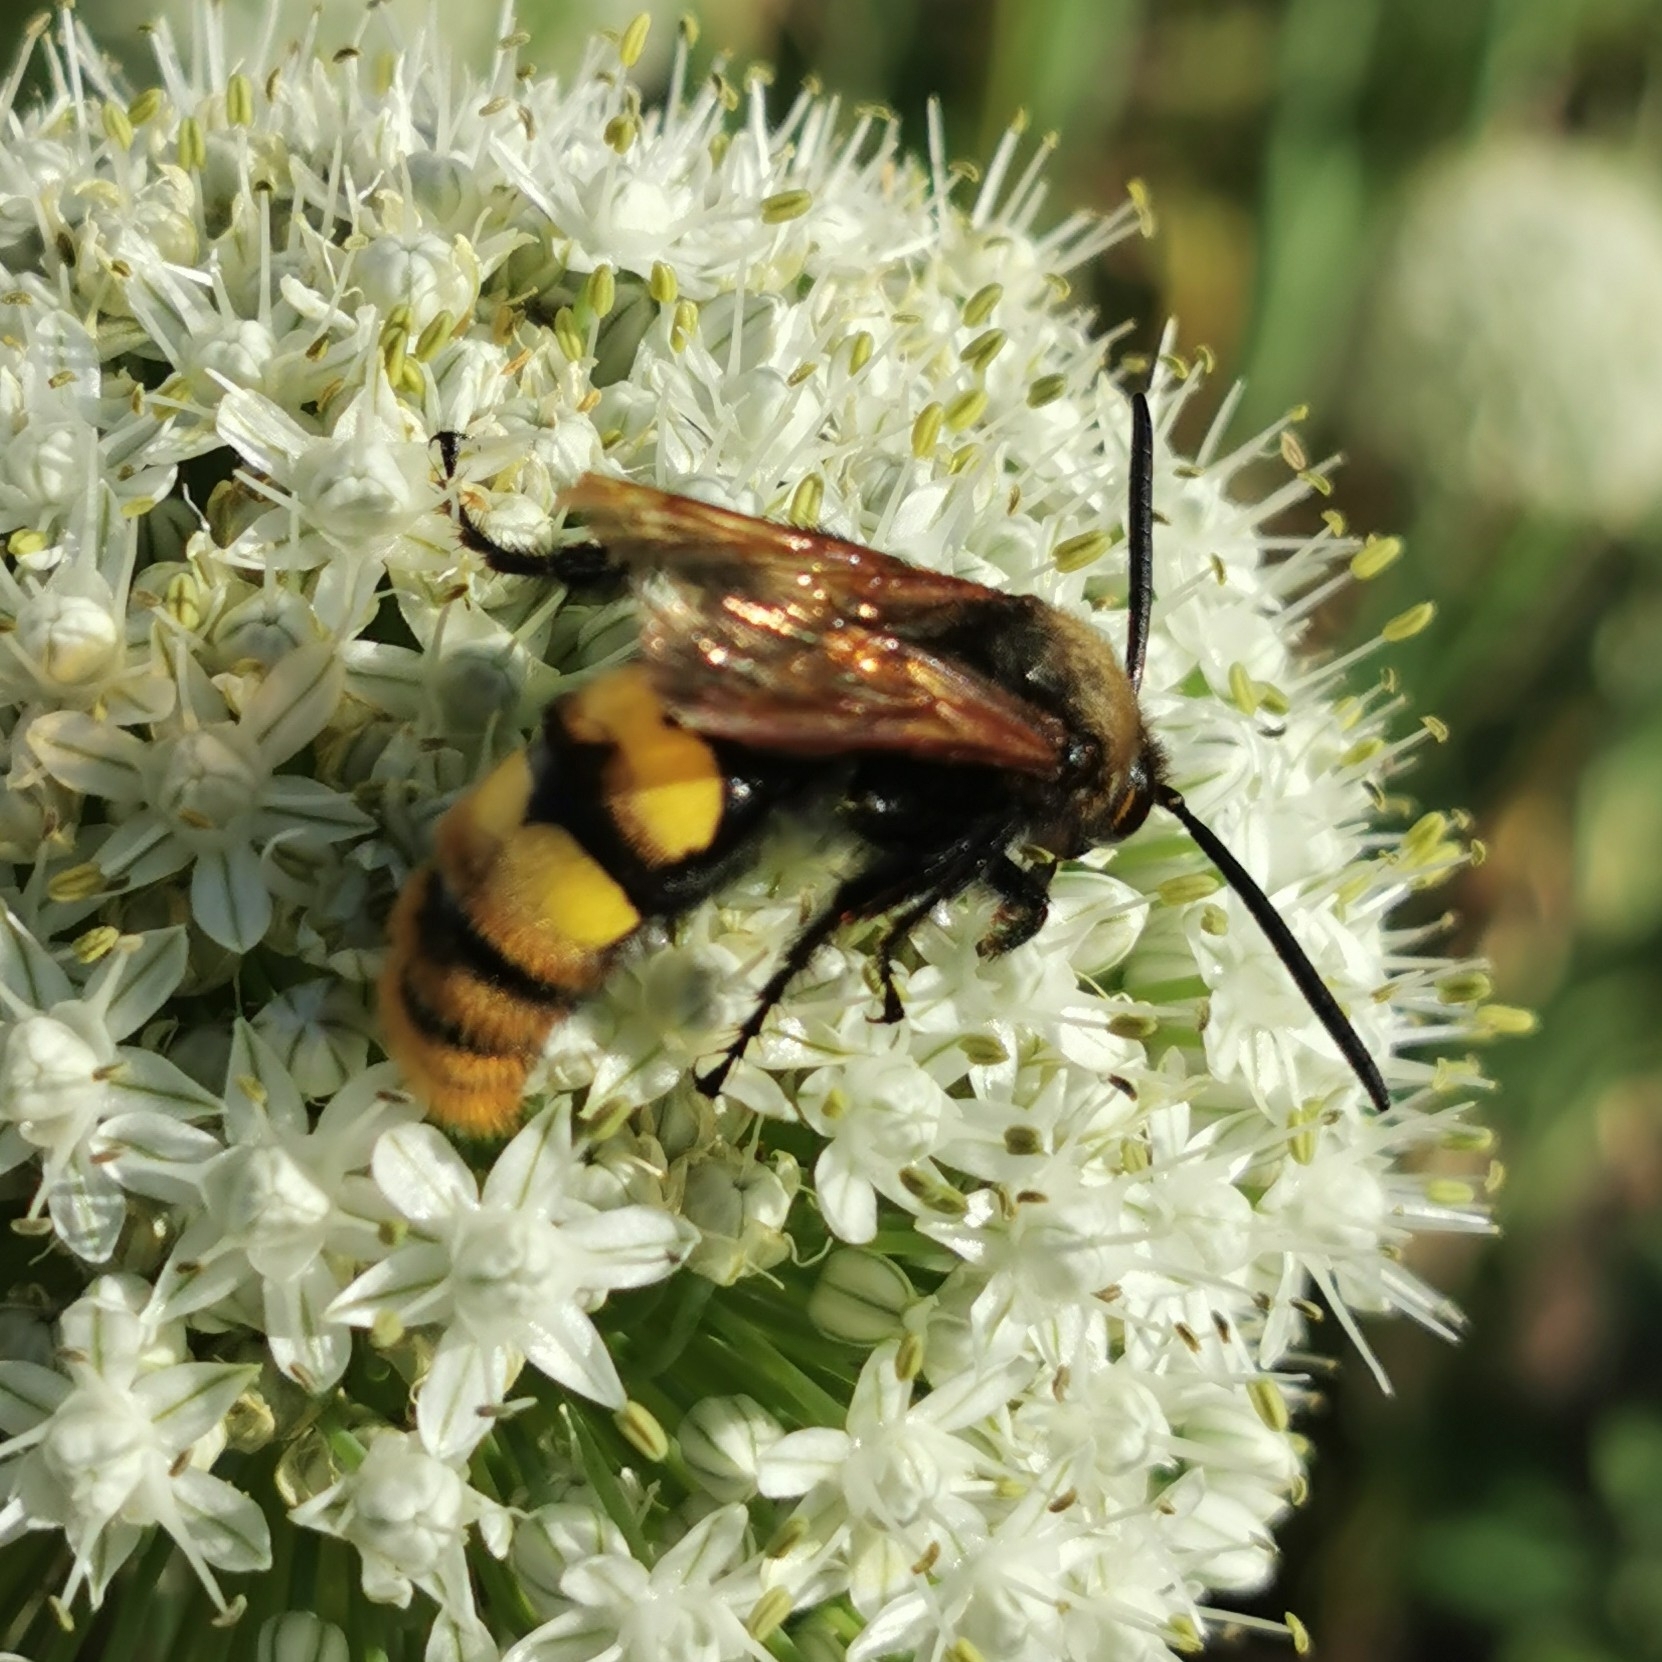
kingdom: Animalia
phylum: Arthropoda
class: Insecta
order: Hymenoptera
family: Scoliidae
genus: Megascolia
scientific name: Megascolia maculata
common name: Mammoth wasp
